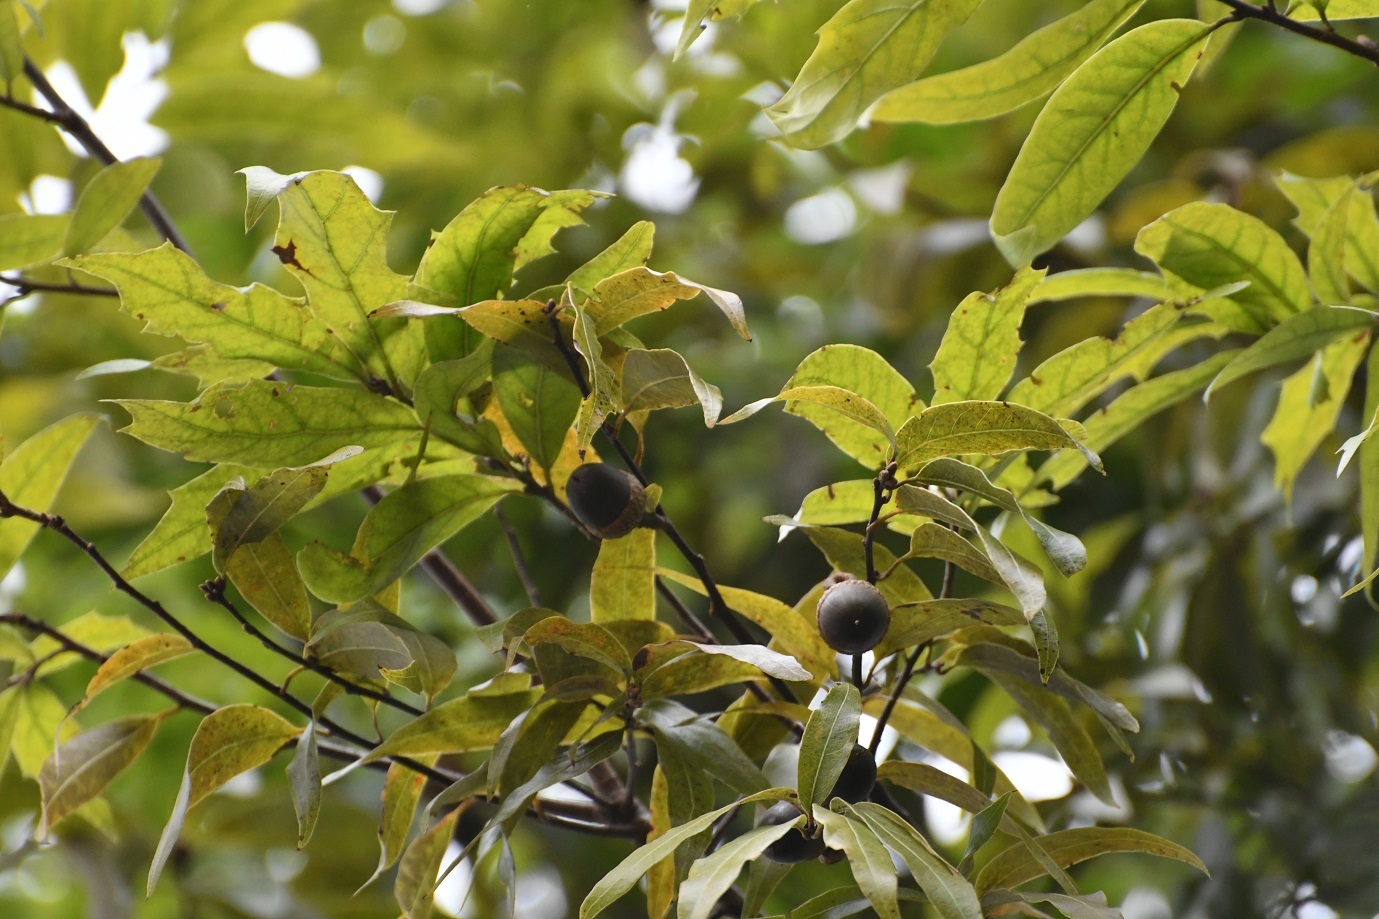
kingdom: Plantae
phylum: Tracheophyta
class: Magnoliopsida
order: Fagales
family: Fagaceae
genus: Quercus
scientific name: Quercus acatenangensis
